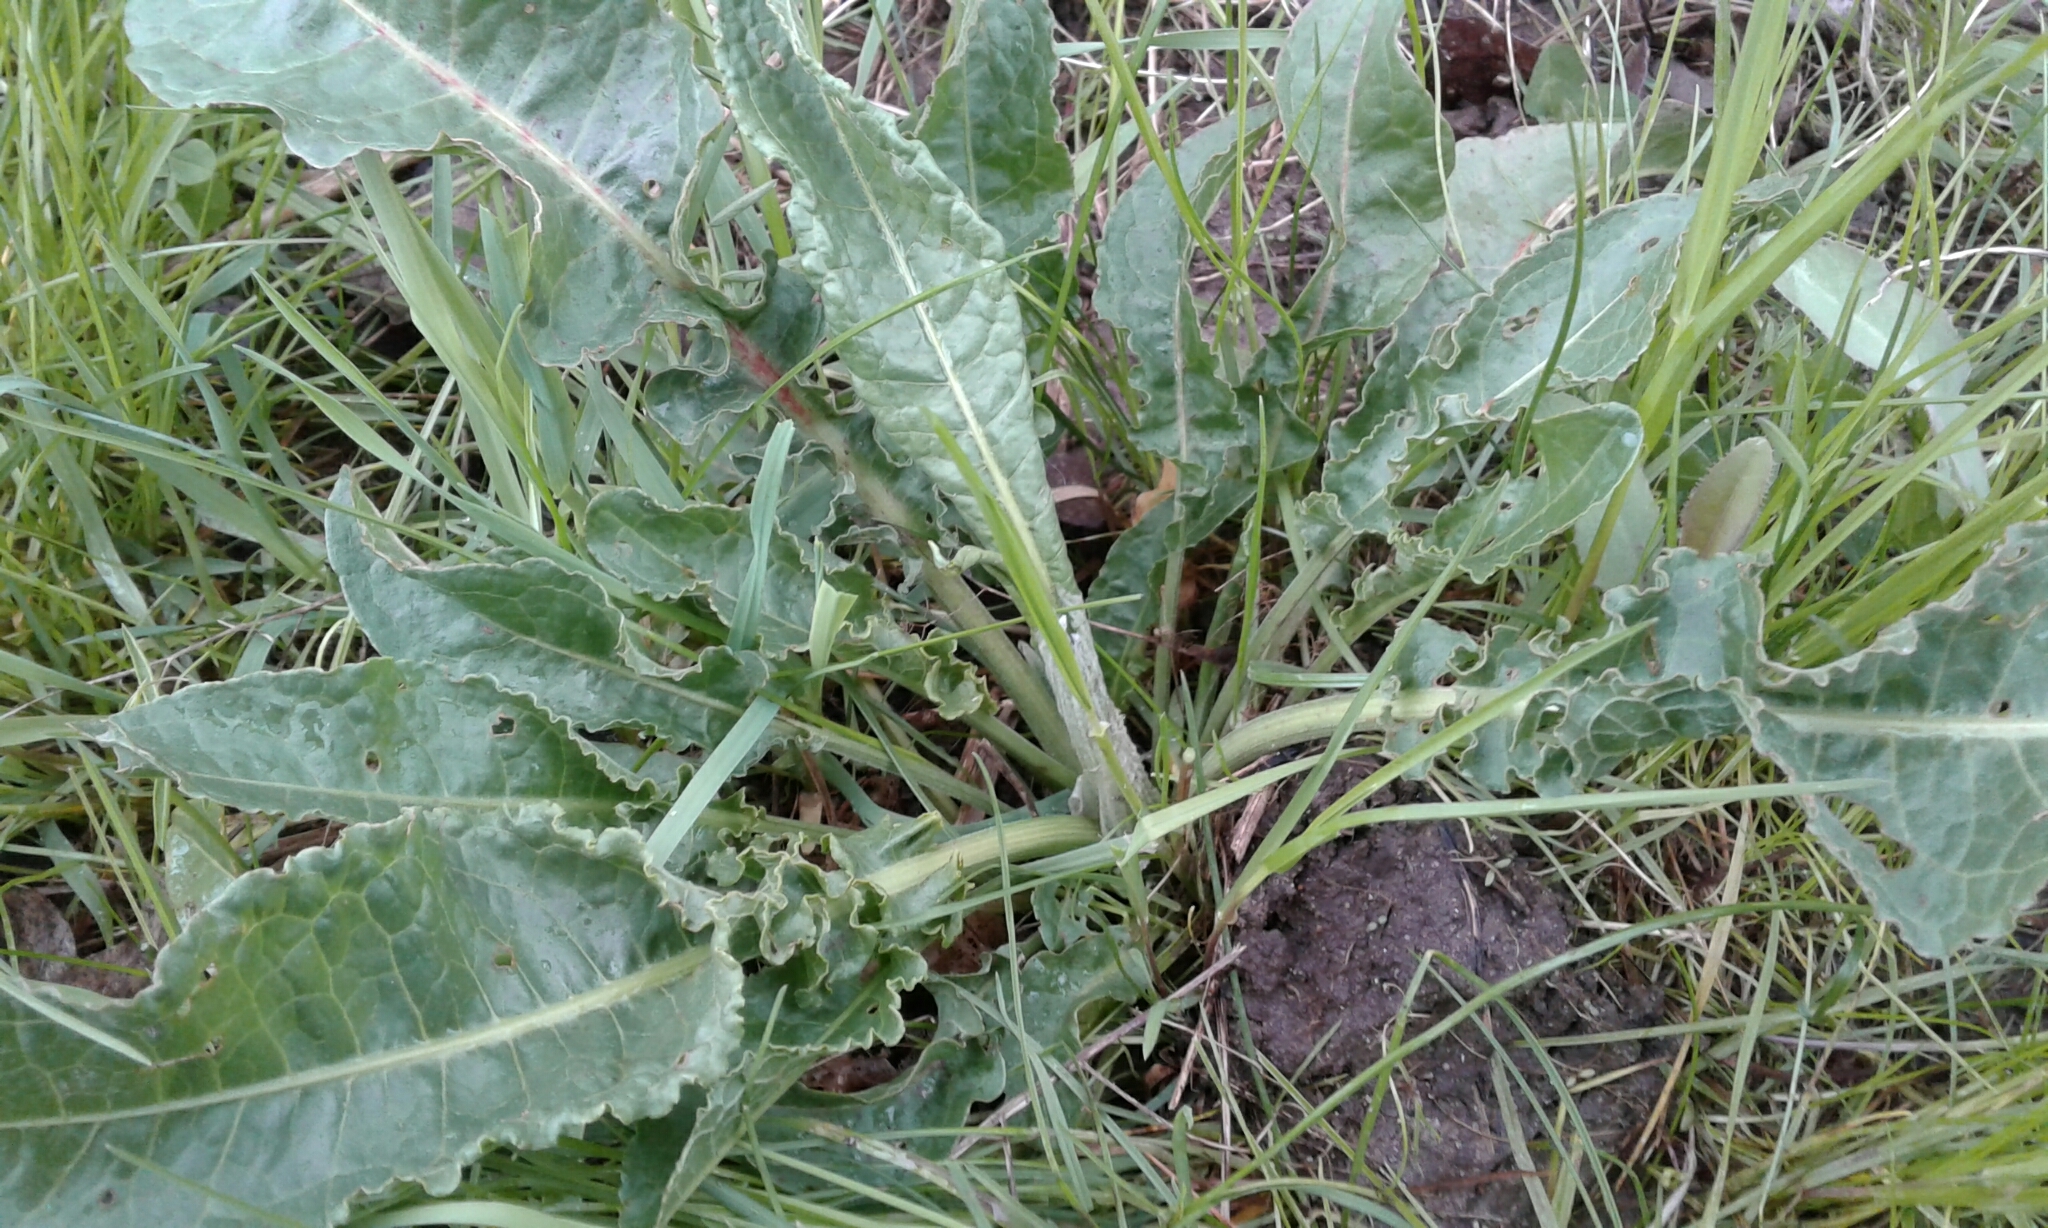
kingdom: Plantae
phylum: Tracheophyta
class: Magnoliopsida
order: Caryophyllales
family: Polygonaceae
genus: Rumex
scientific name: Rumex crispus
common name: Curled dock
